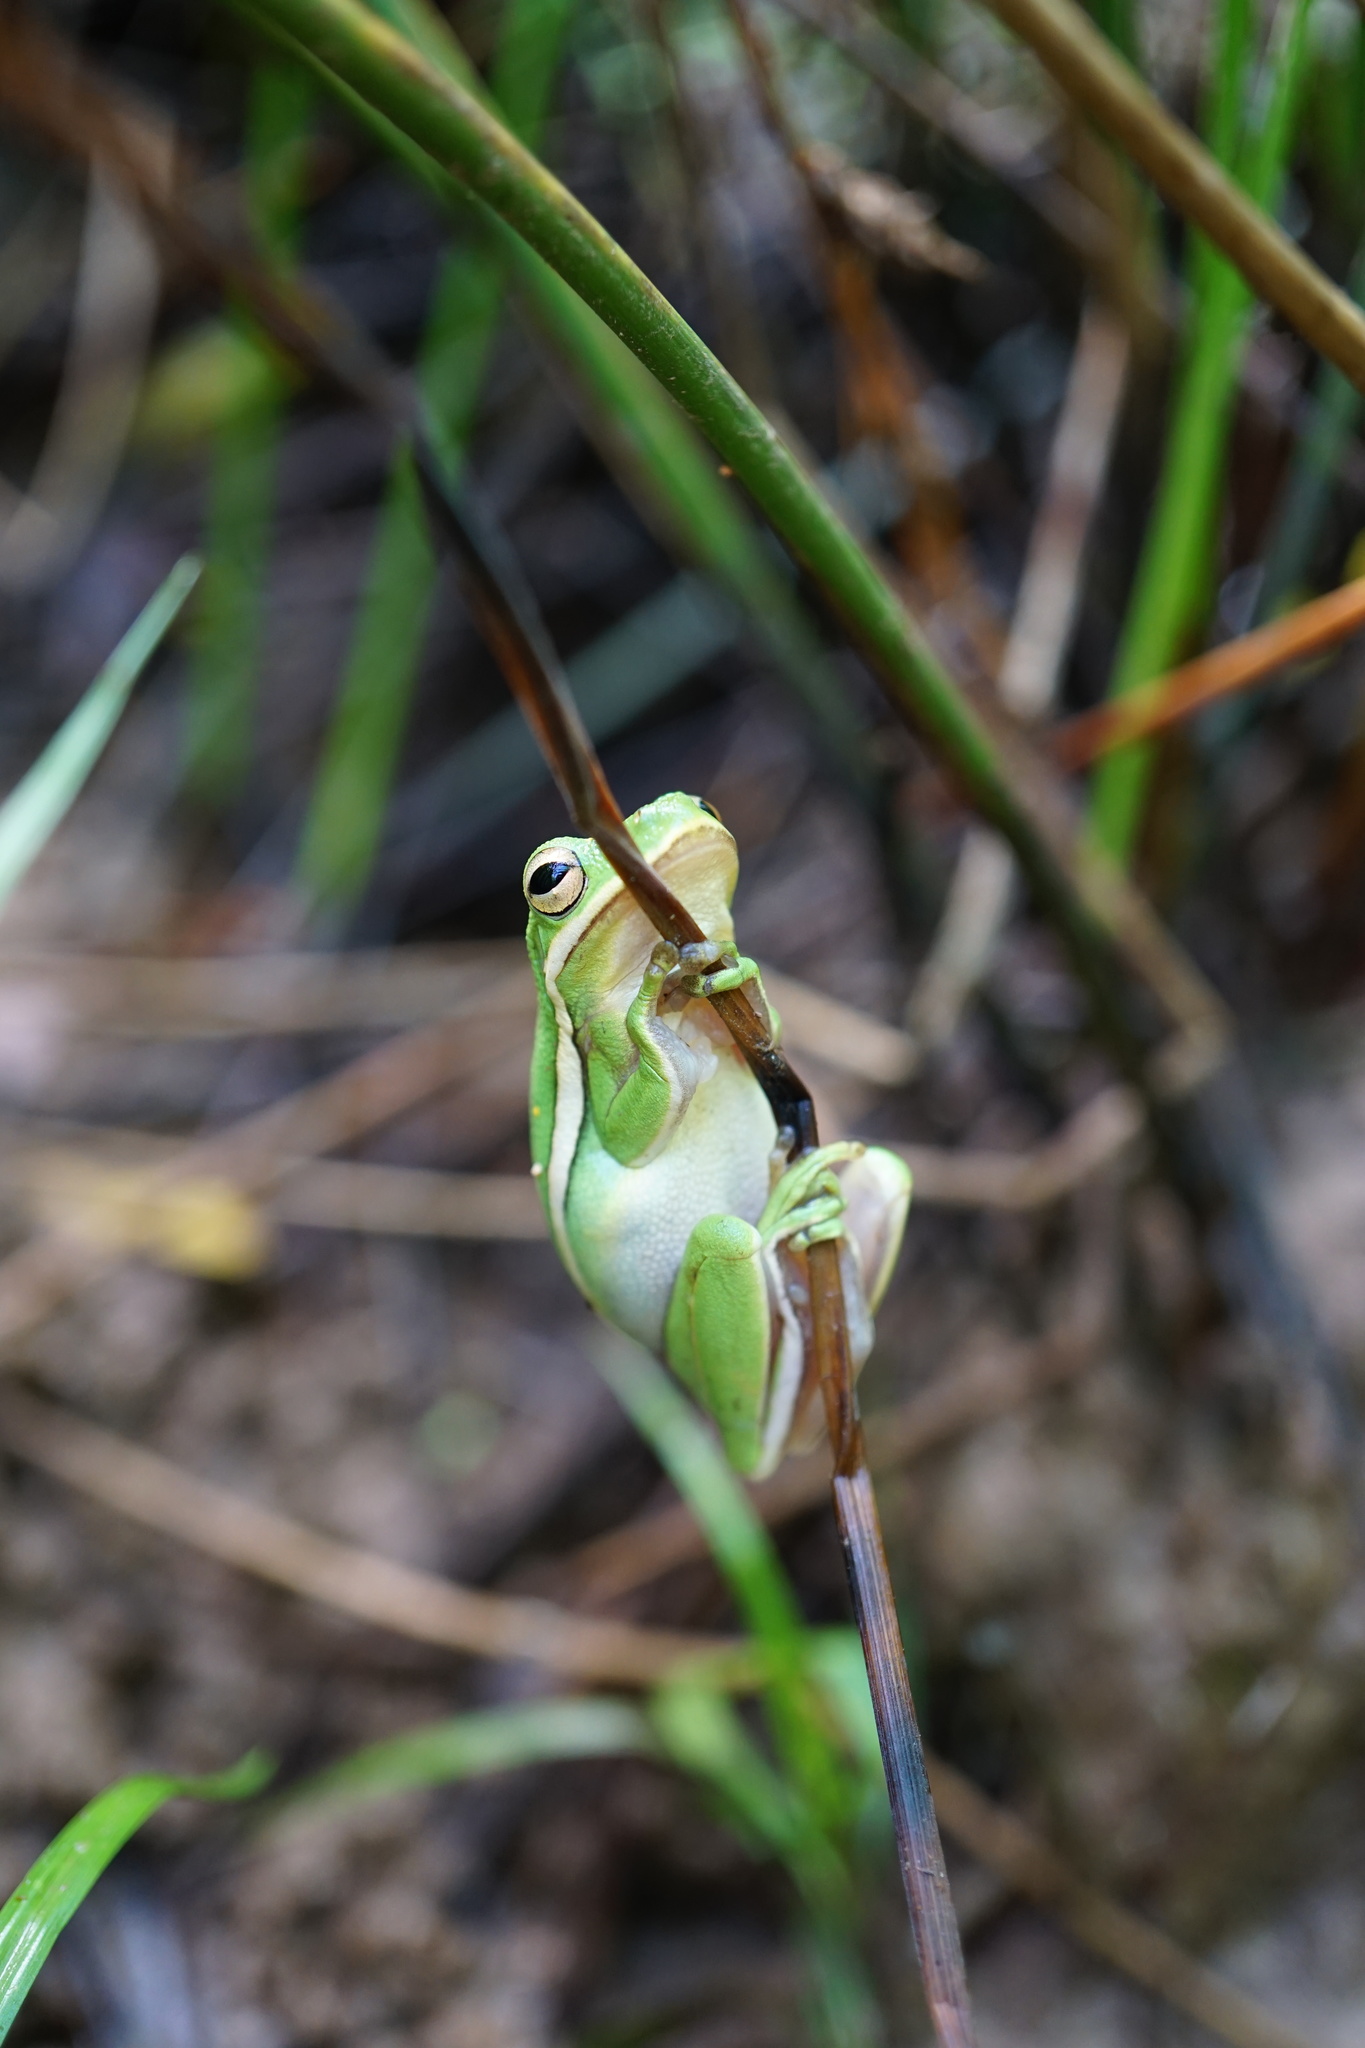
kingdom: Animalia
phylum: Chordata
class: Amphibia
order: Anura
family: Hylidae
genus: Dryophytes
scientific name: Dryophytes cinereus
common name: Green treefrog
